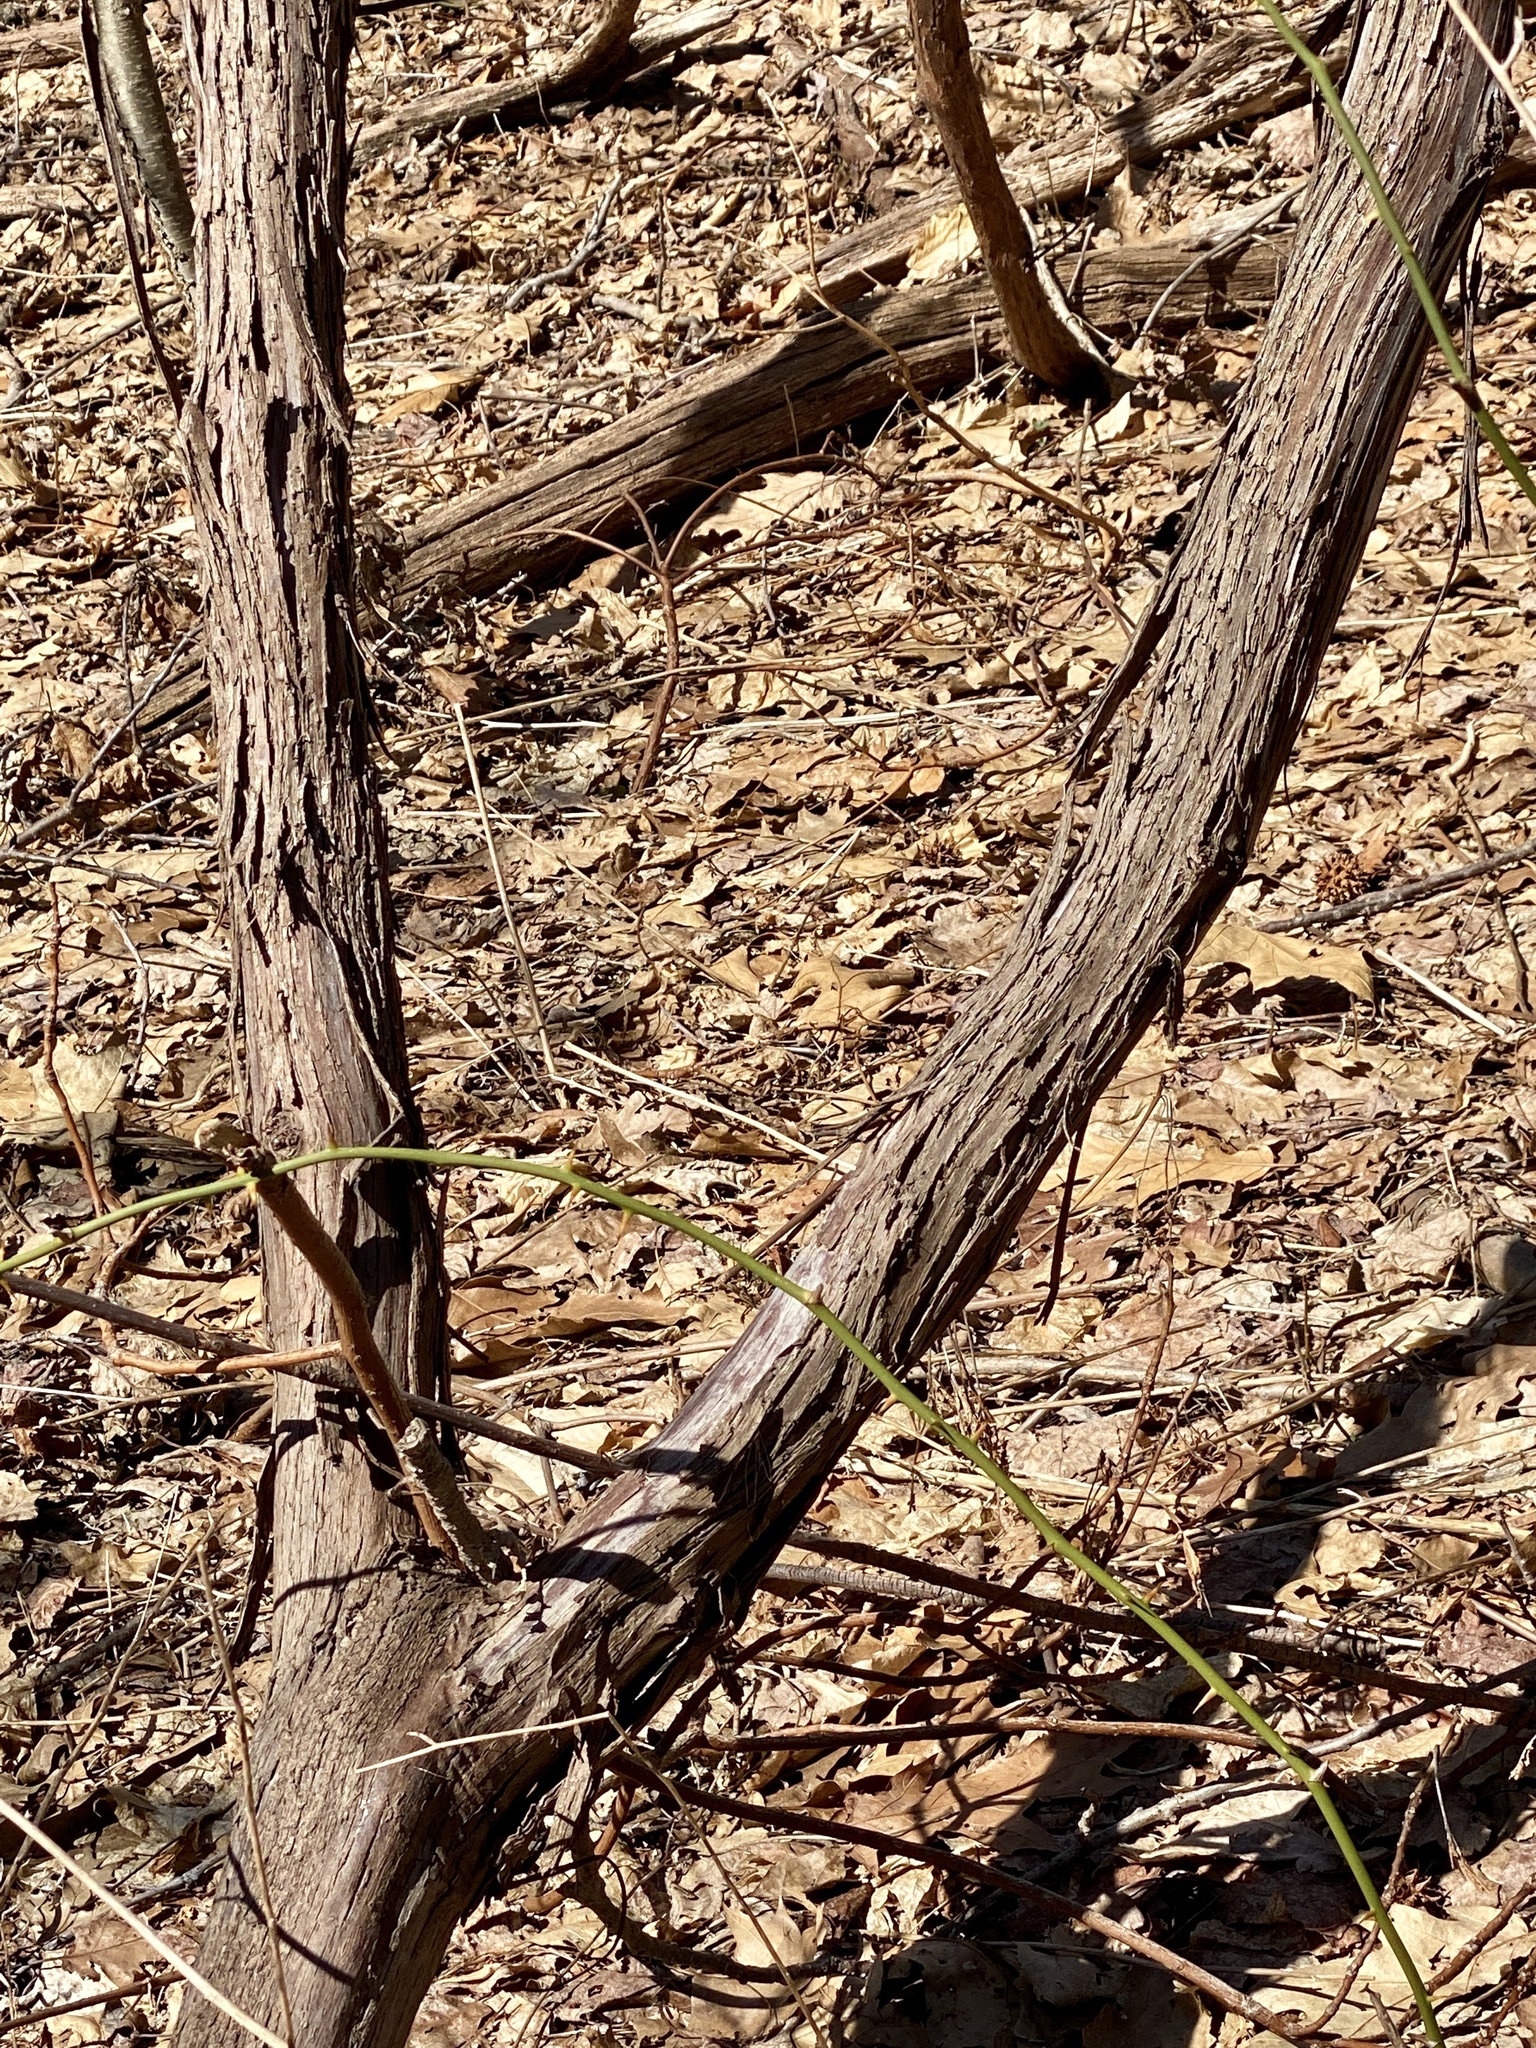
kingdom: Plantae
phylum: Tracheophyta
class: Magnoliopsida
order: Vitales
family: Vitaceae
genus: Vitis
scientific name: Vitis
